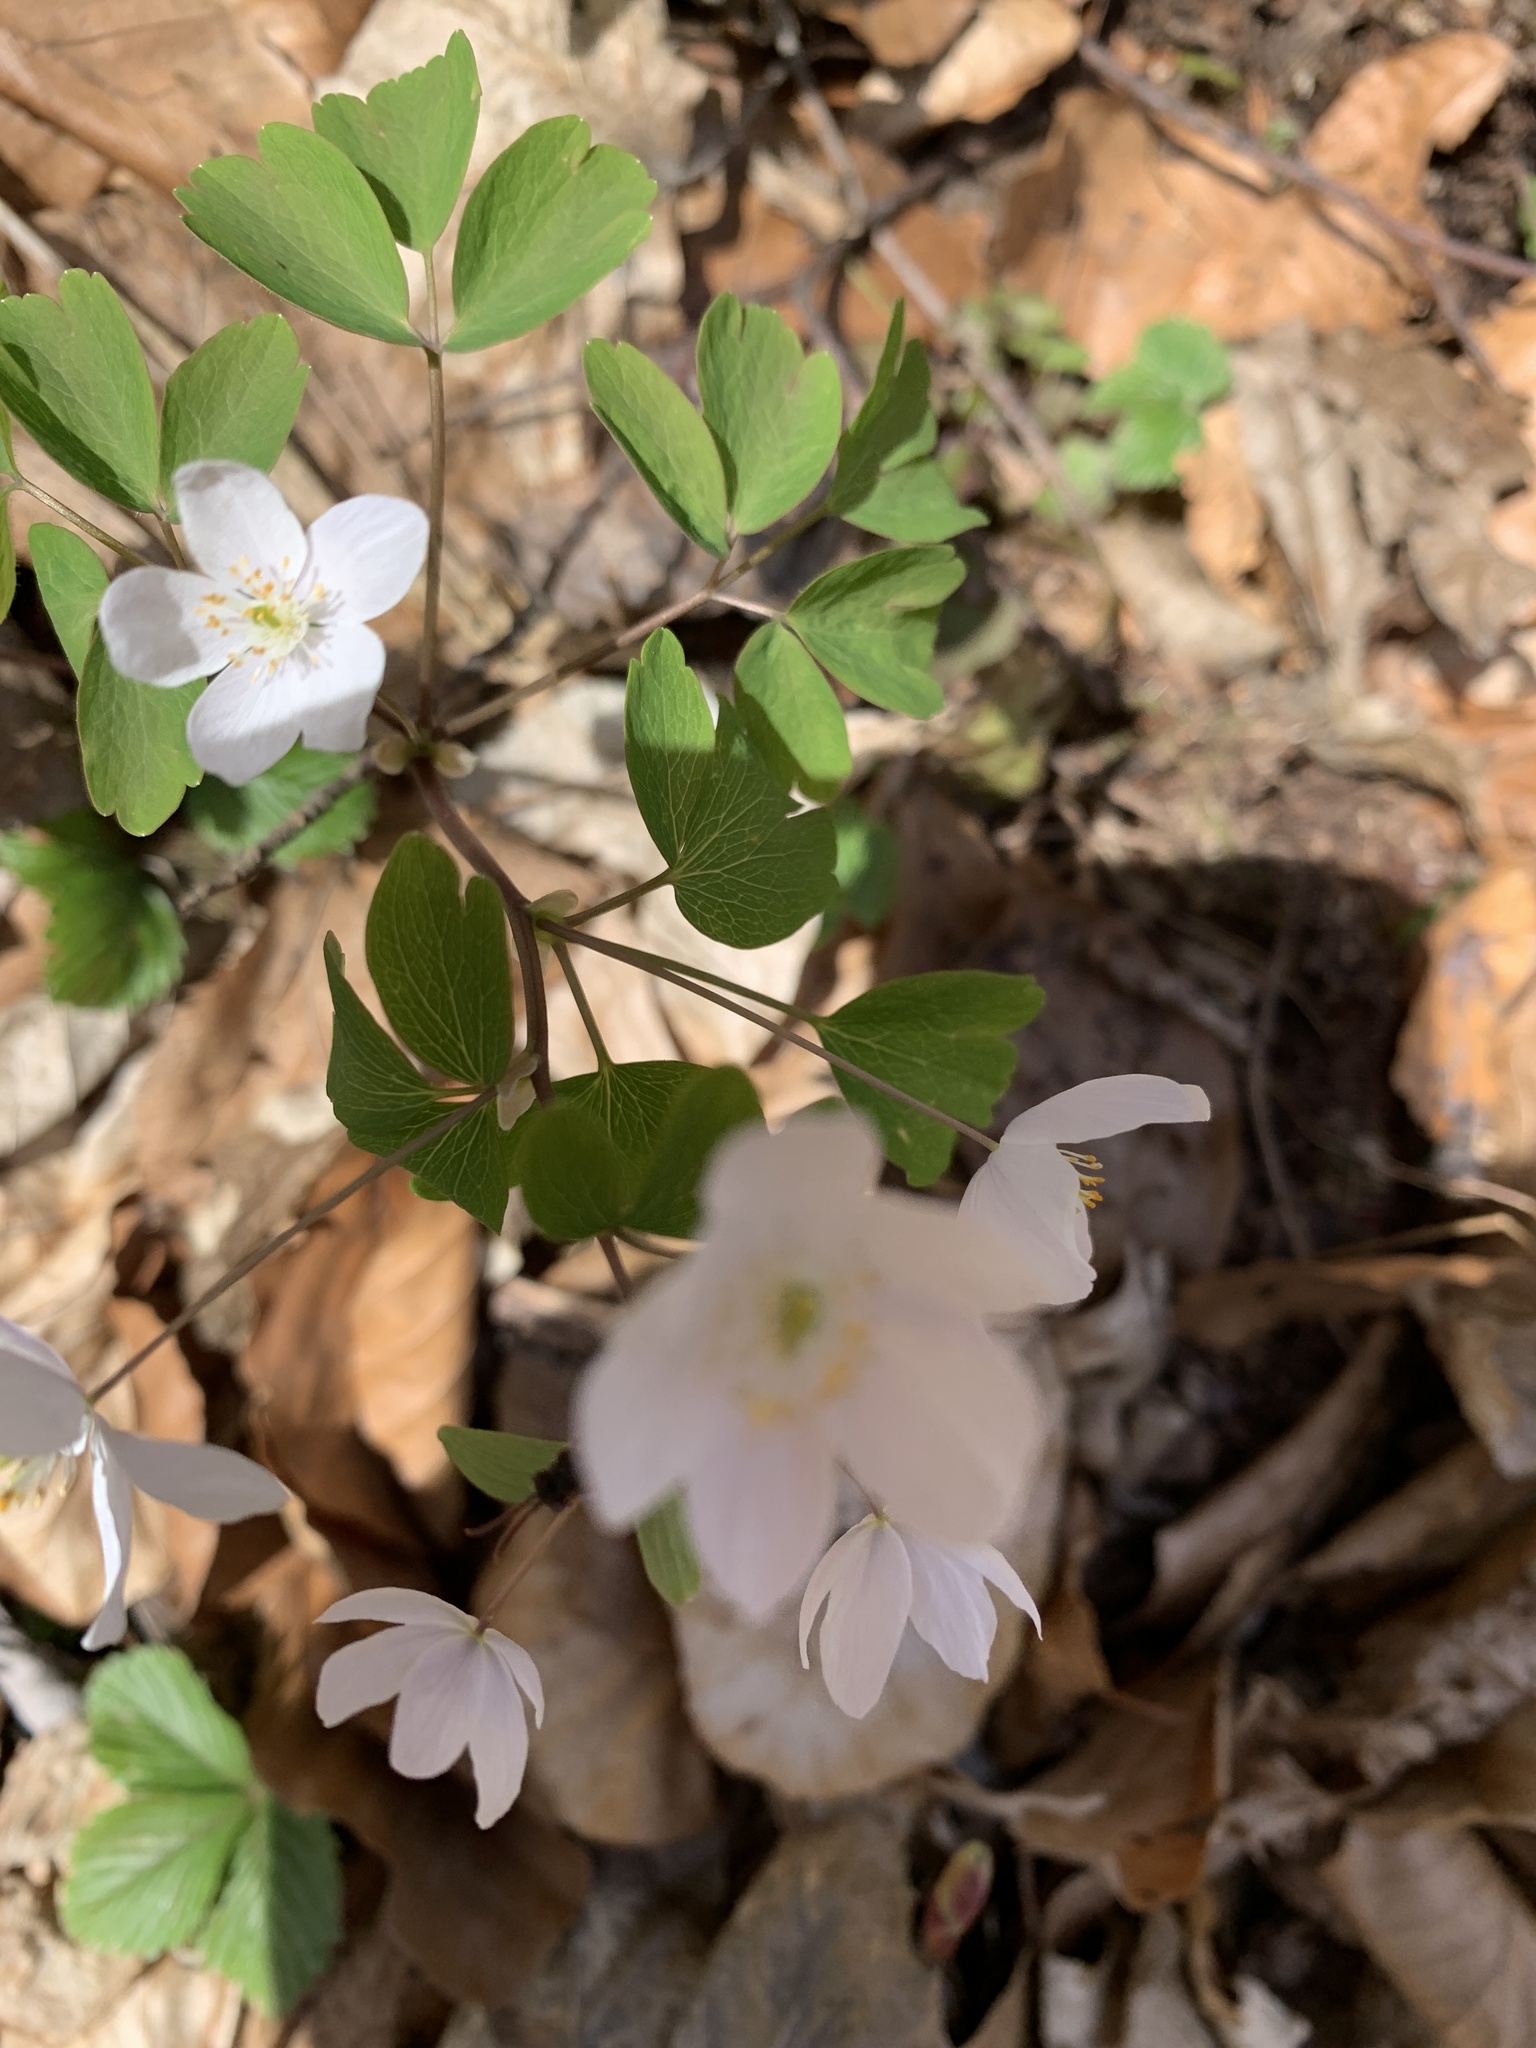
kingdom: Plantae
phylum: Tracheophyta
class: Magnoliopsida
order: Ranunculales
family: Ranunculaceae
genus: Isopyrum
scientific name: Isopyrum thalictroides
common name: Isopyrum
